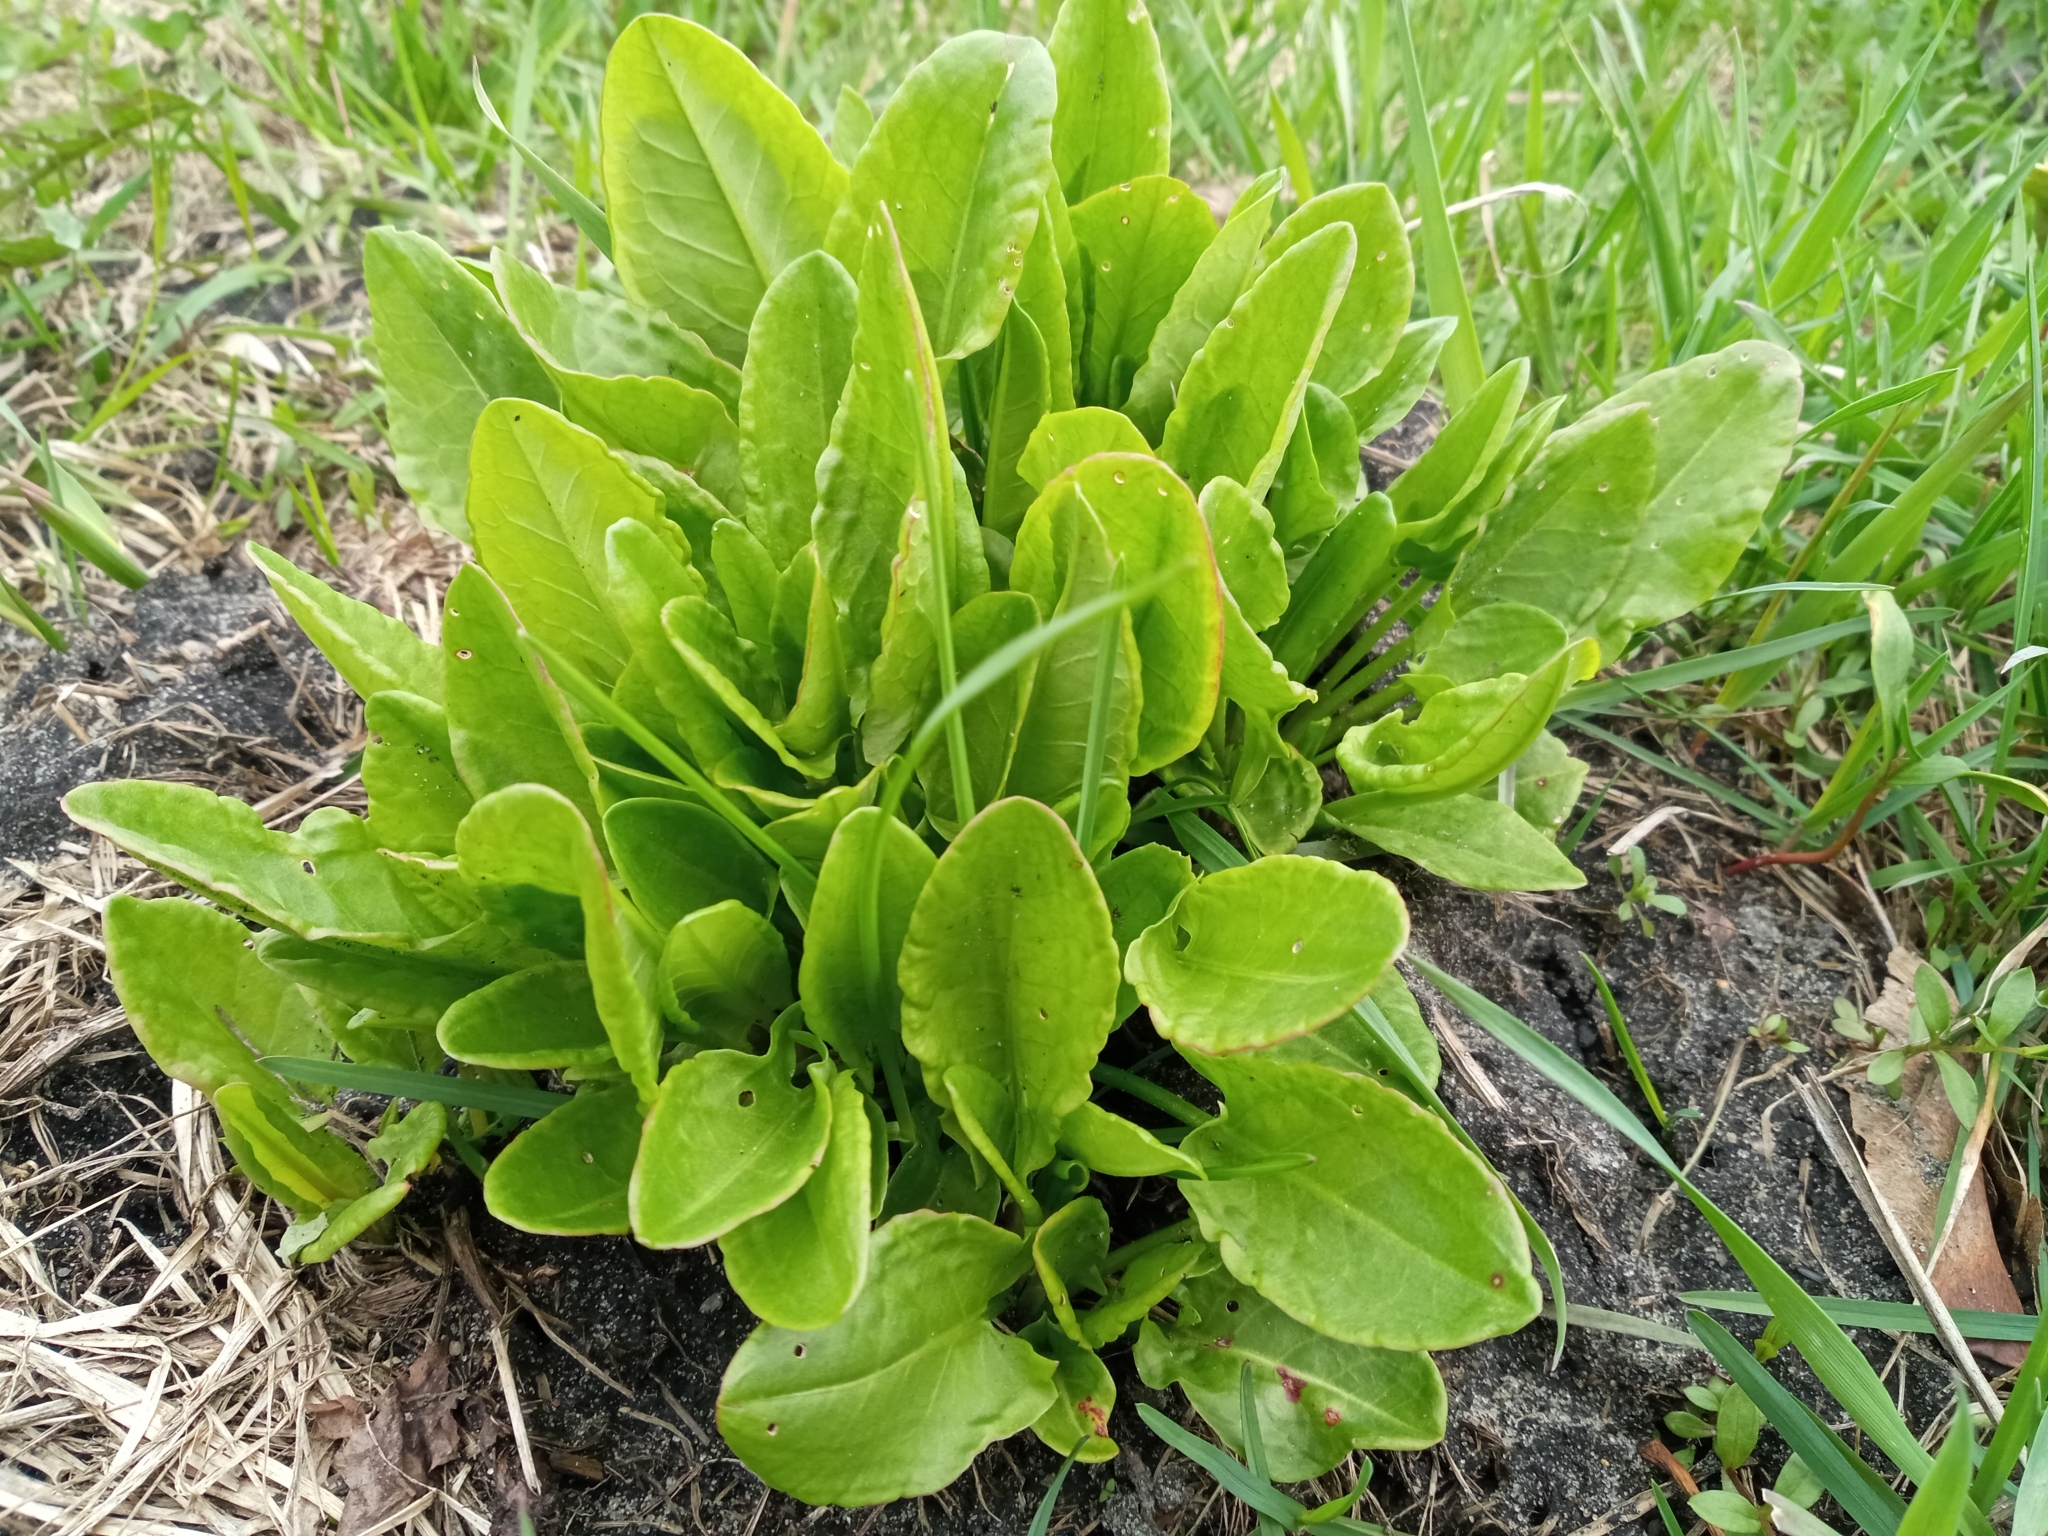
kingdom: Plantae
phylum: Tracheophyta
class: Magnoliopsida
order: Caryophyllales
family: Polygonaceae
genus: Rumex
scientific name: Rumex acetosa
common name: Garden sorrel
